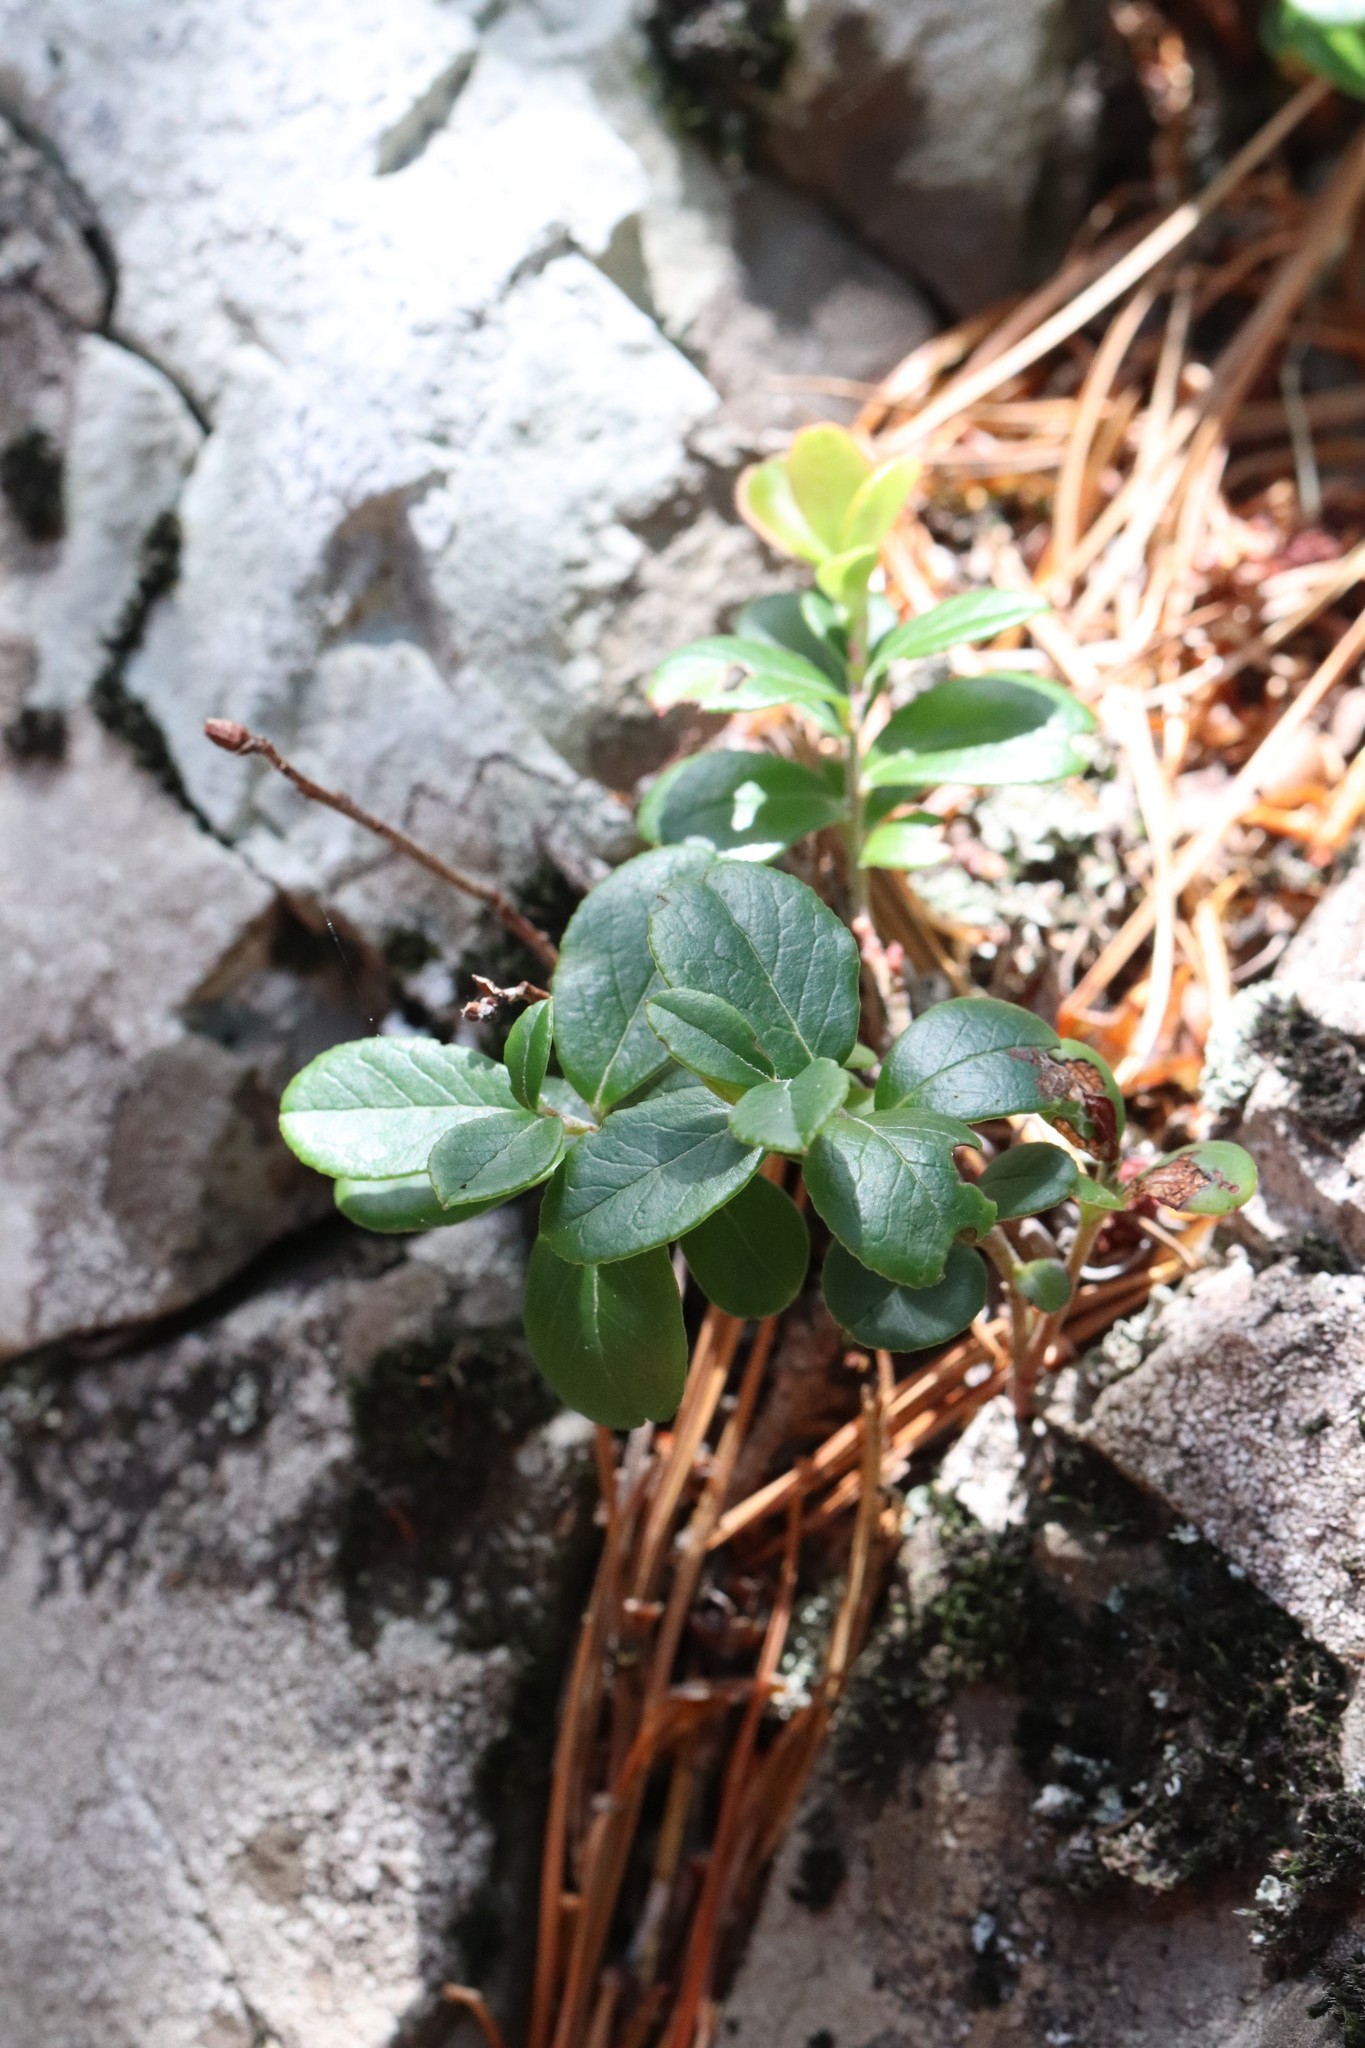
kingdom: Plantae
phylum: Tracheophyta
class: Magnoliopsida
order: Ericales
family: Ericaceae
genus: Vaccinium
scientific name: Vaccinium vitis-idaea
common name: Cowberry
